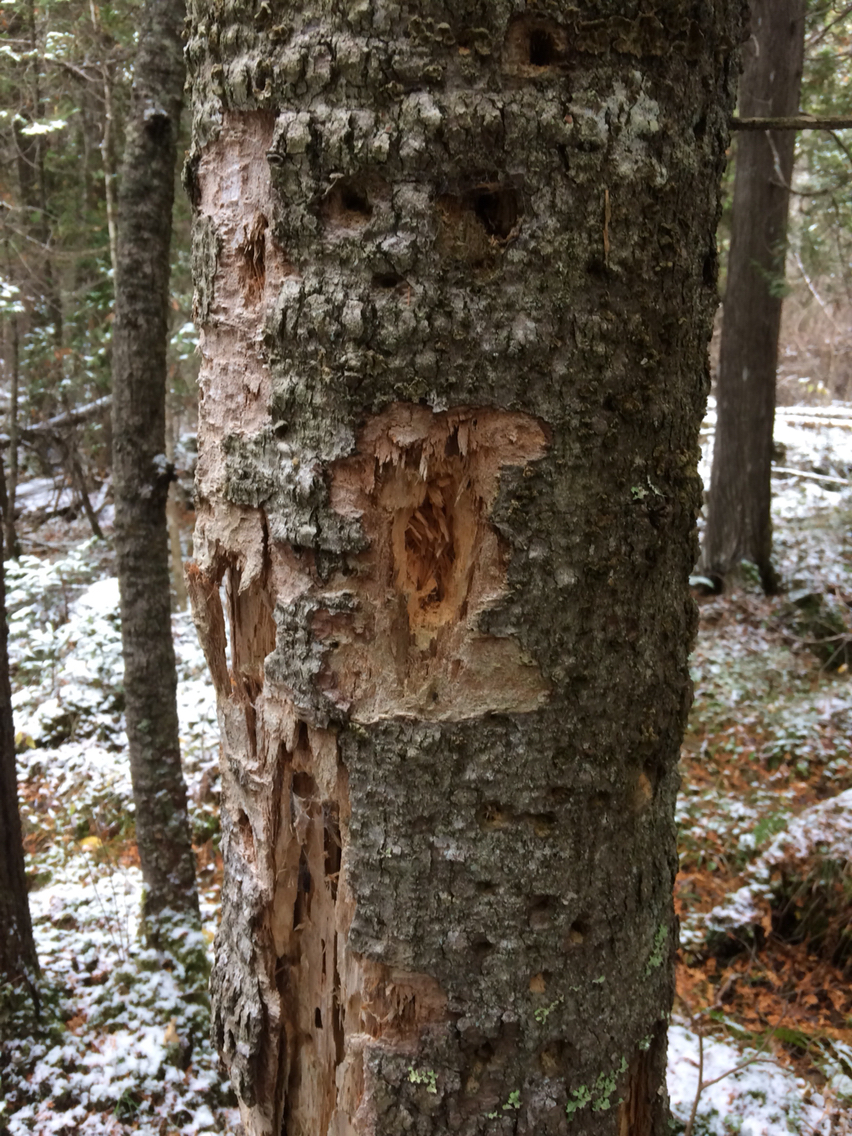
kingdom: Animalia
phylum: Chordata
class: Aves
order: Piciformes
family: Picidae
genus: Dryocopus
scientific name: Dryocopus pileatus
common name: Pileated woodpecker
